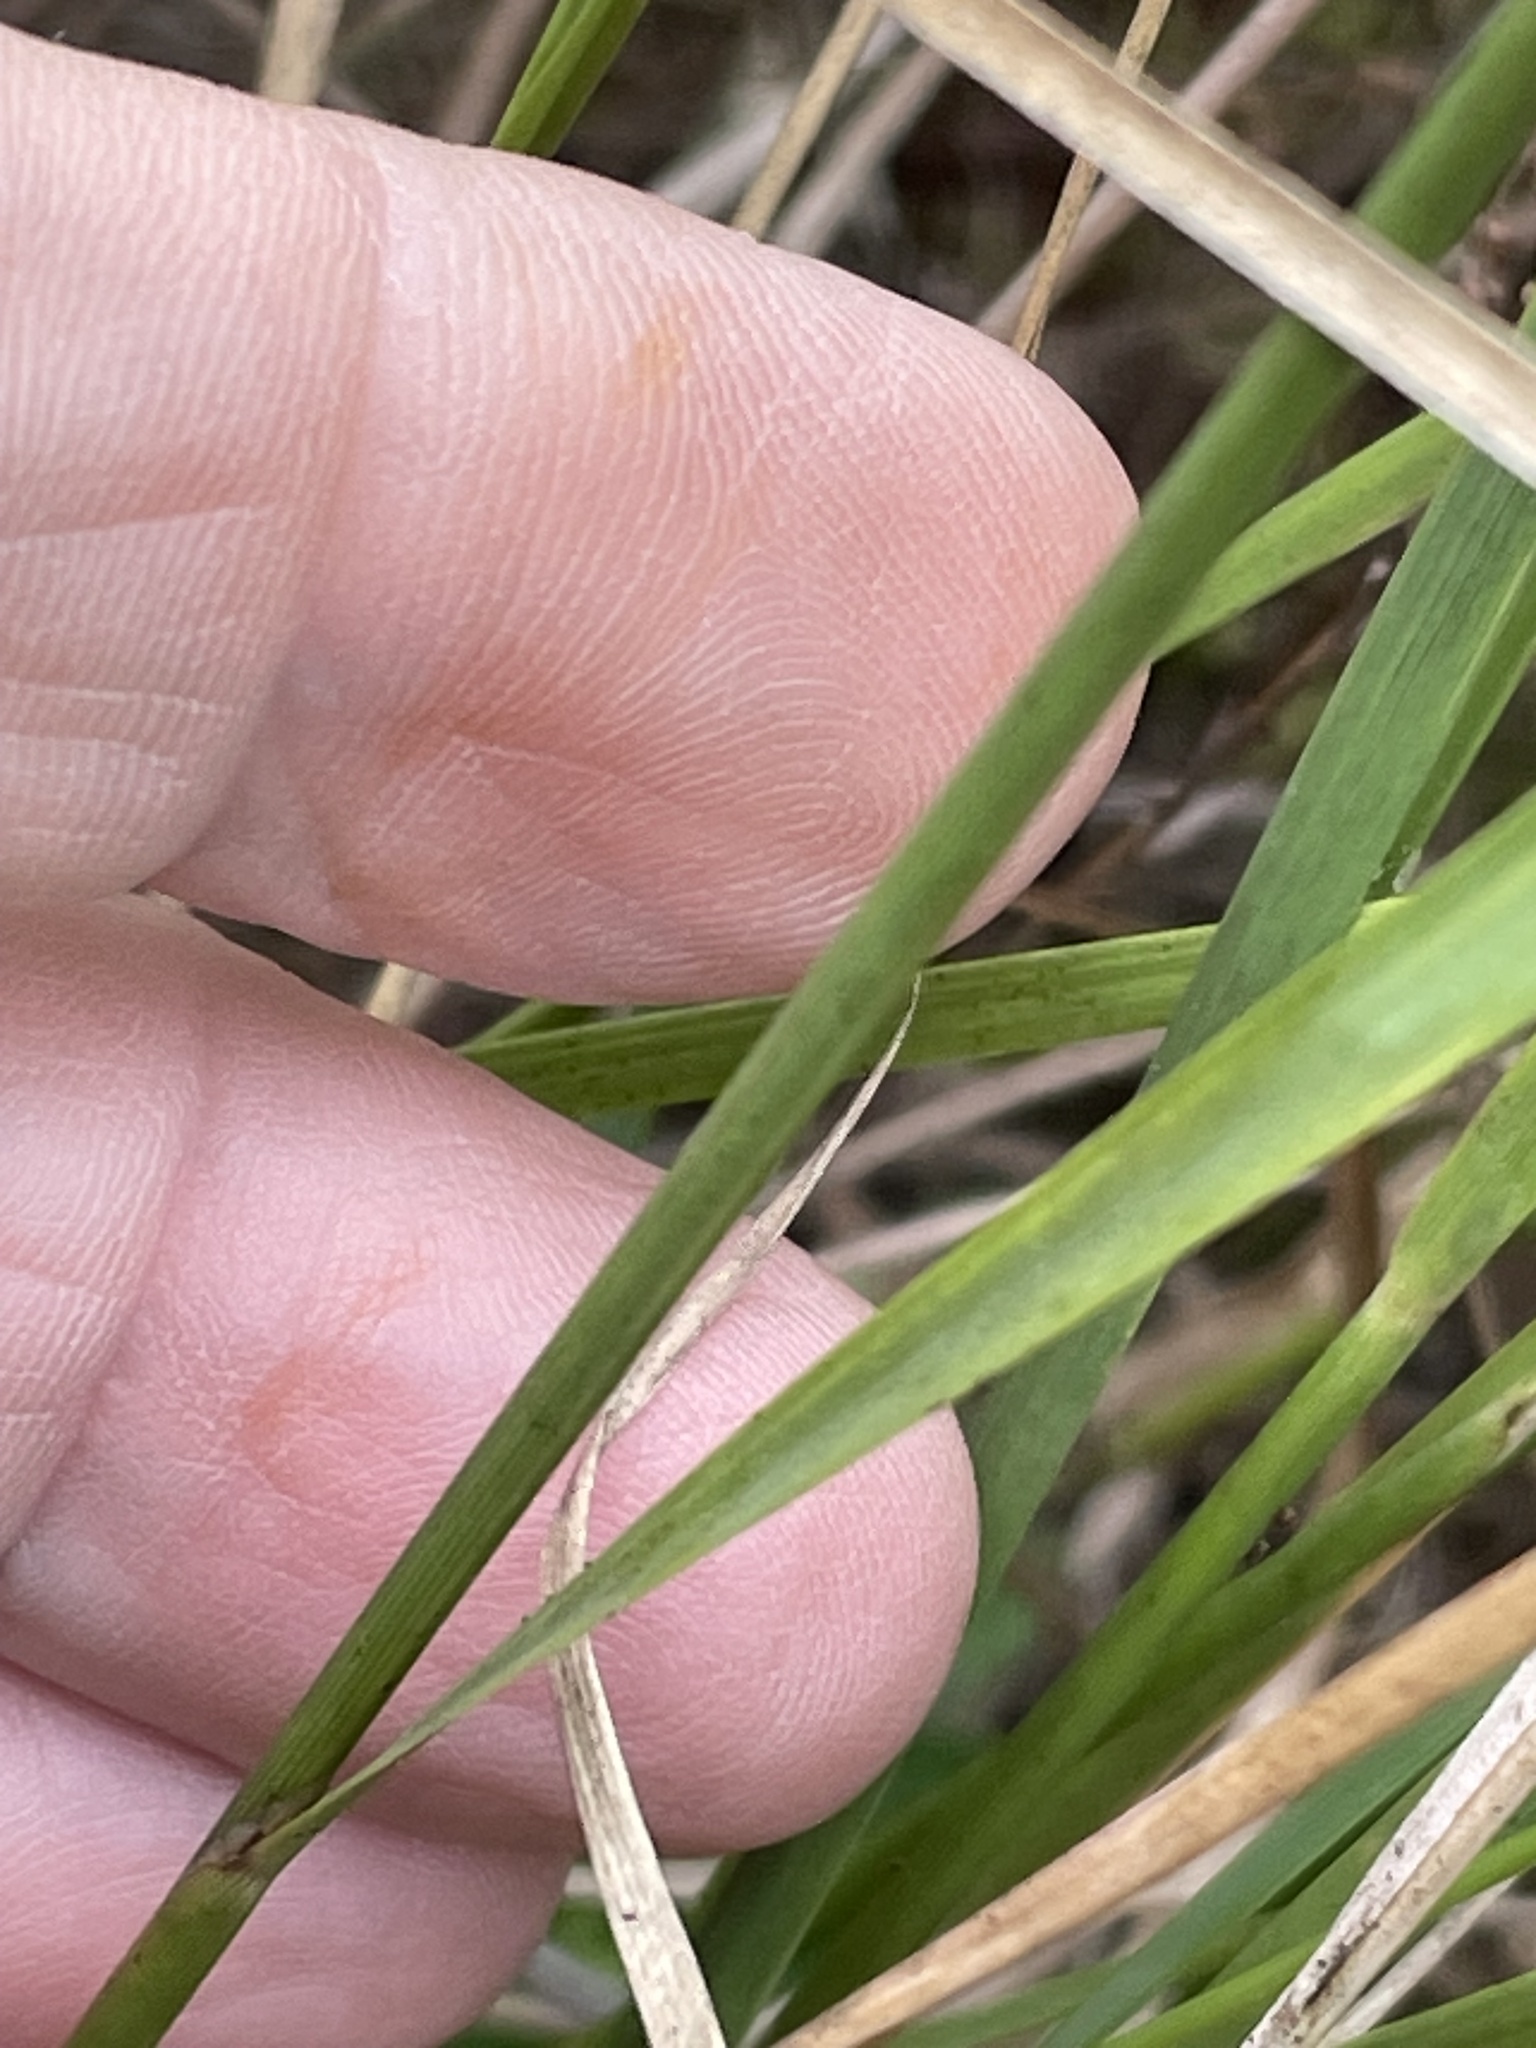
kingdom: Plantae
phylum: Tracheophyta
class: Liliopsida
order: Poales
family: Poaceae
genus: Sorghastrum
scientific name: Sorghastrum nutans
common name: Indian grass
